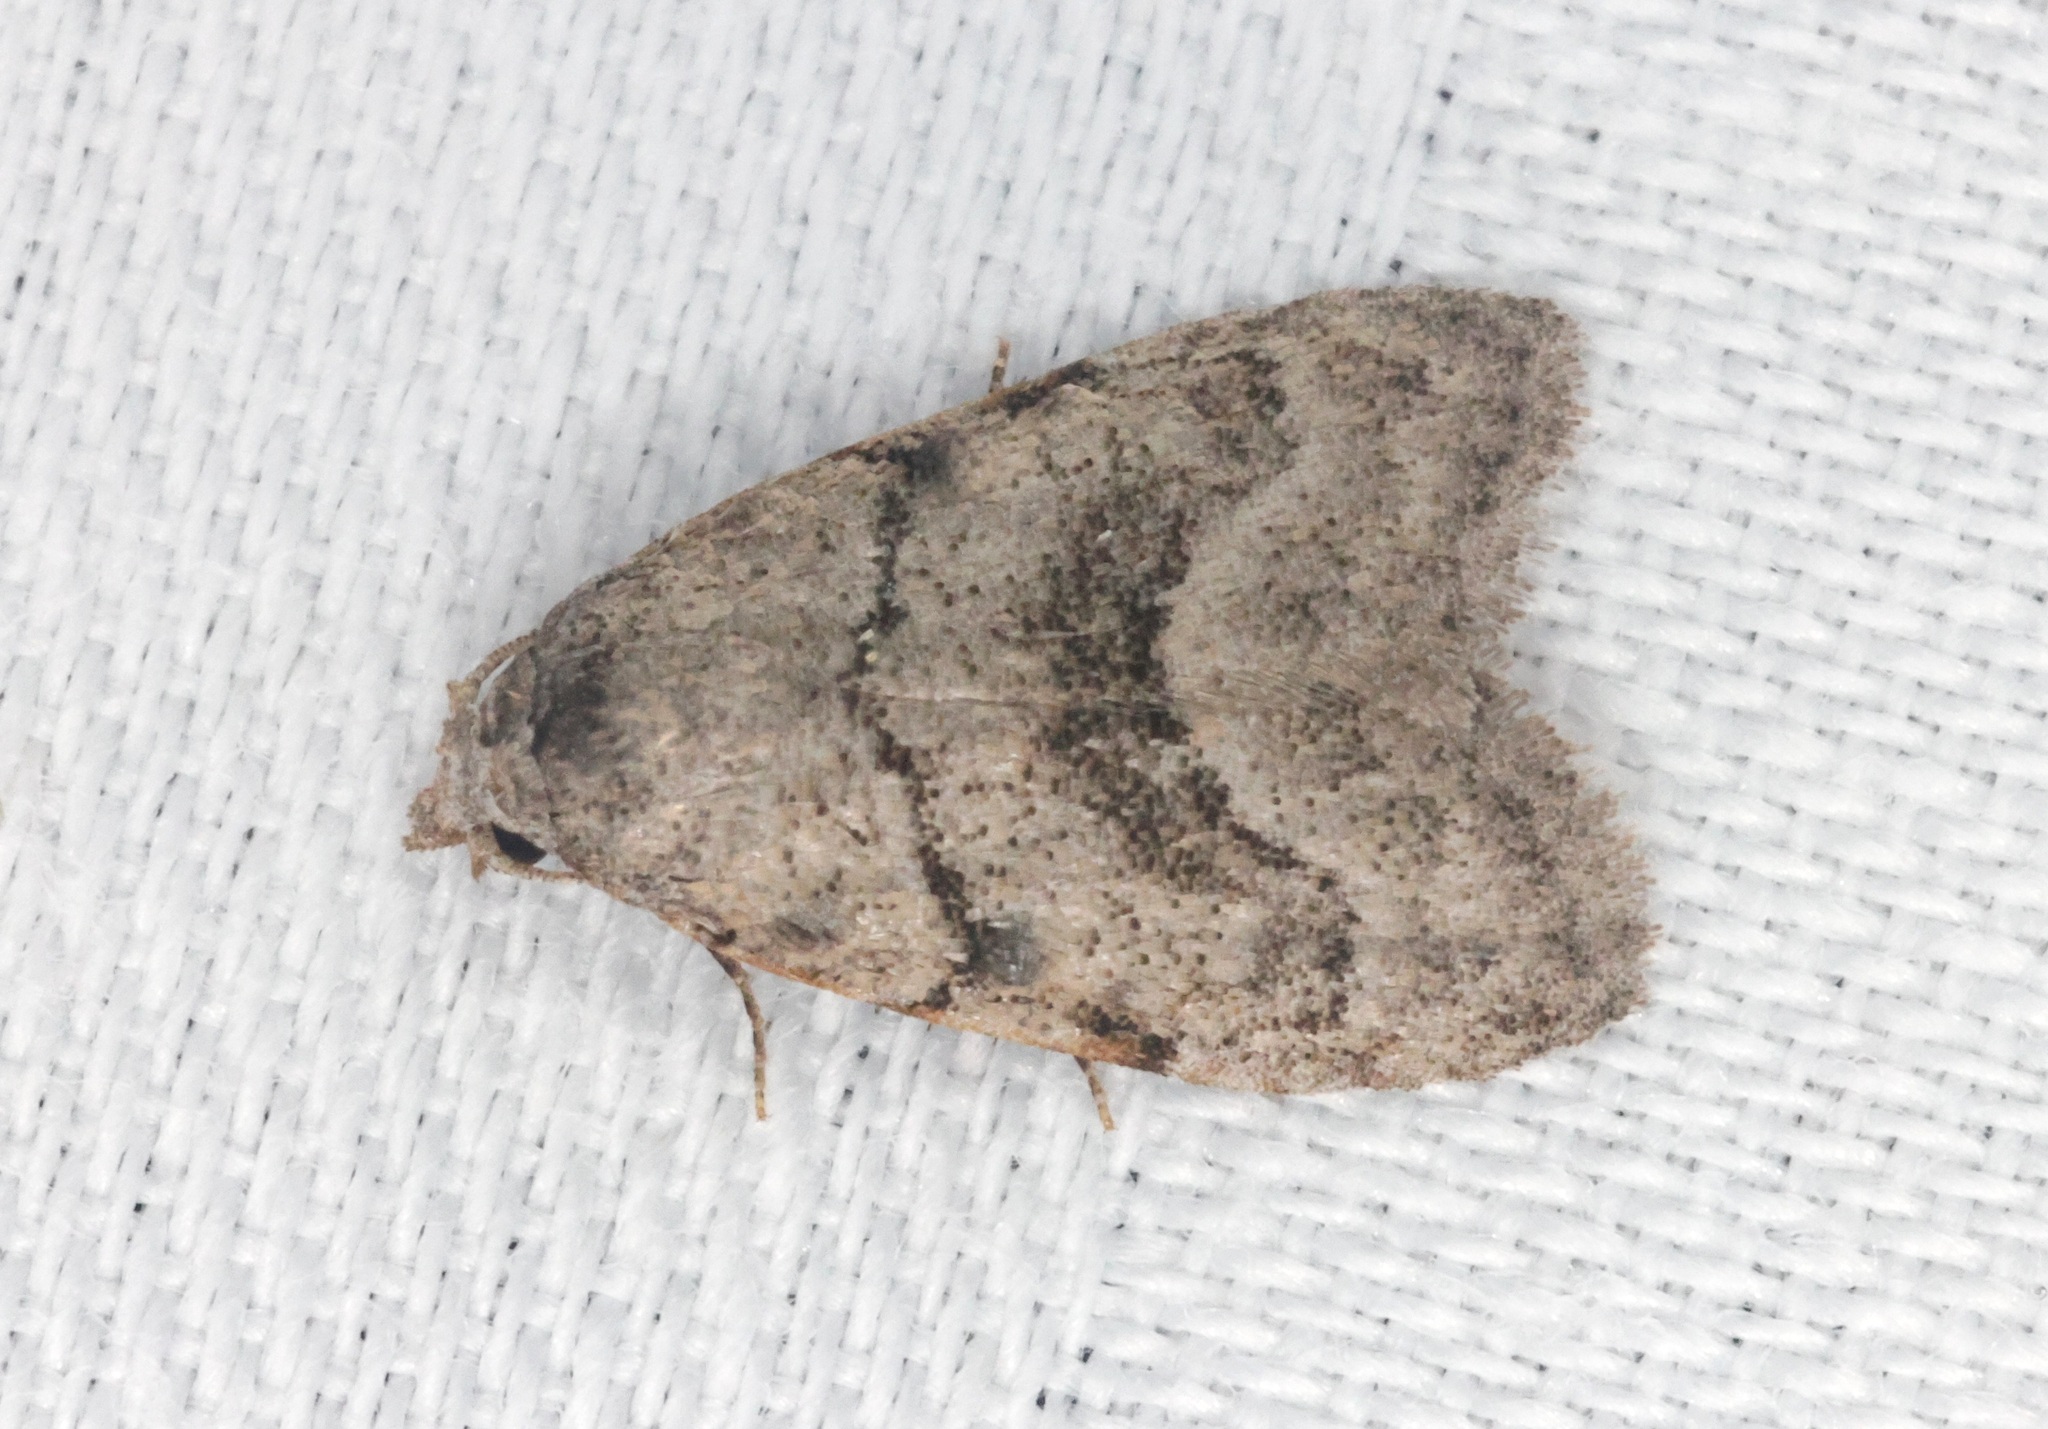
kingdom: Animalia
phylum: Arthropoda
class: Insecta
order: Lepidoptera
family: Nolidae
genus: Inouenola
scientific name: Inouenola pallescens
